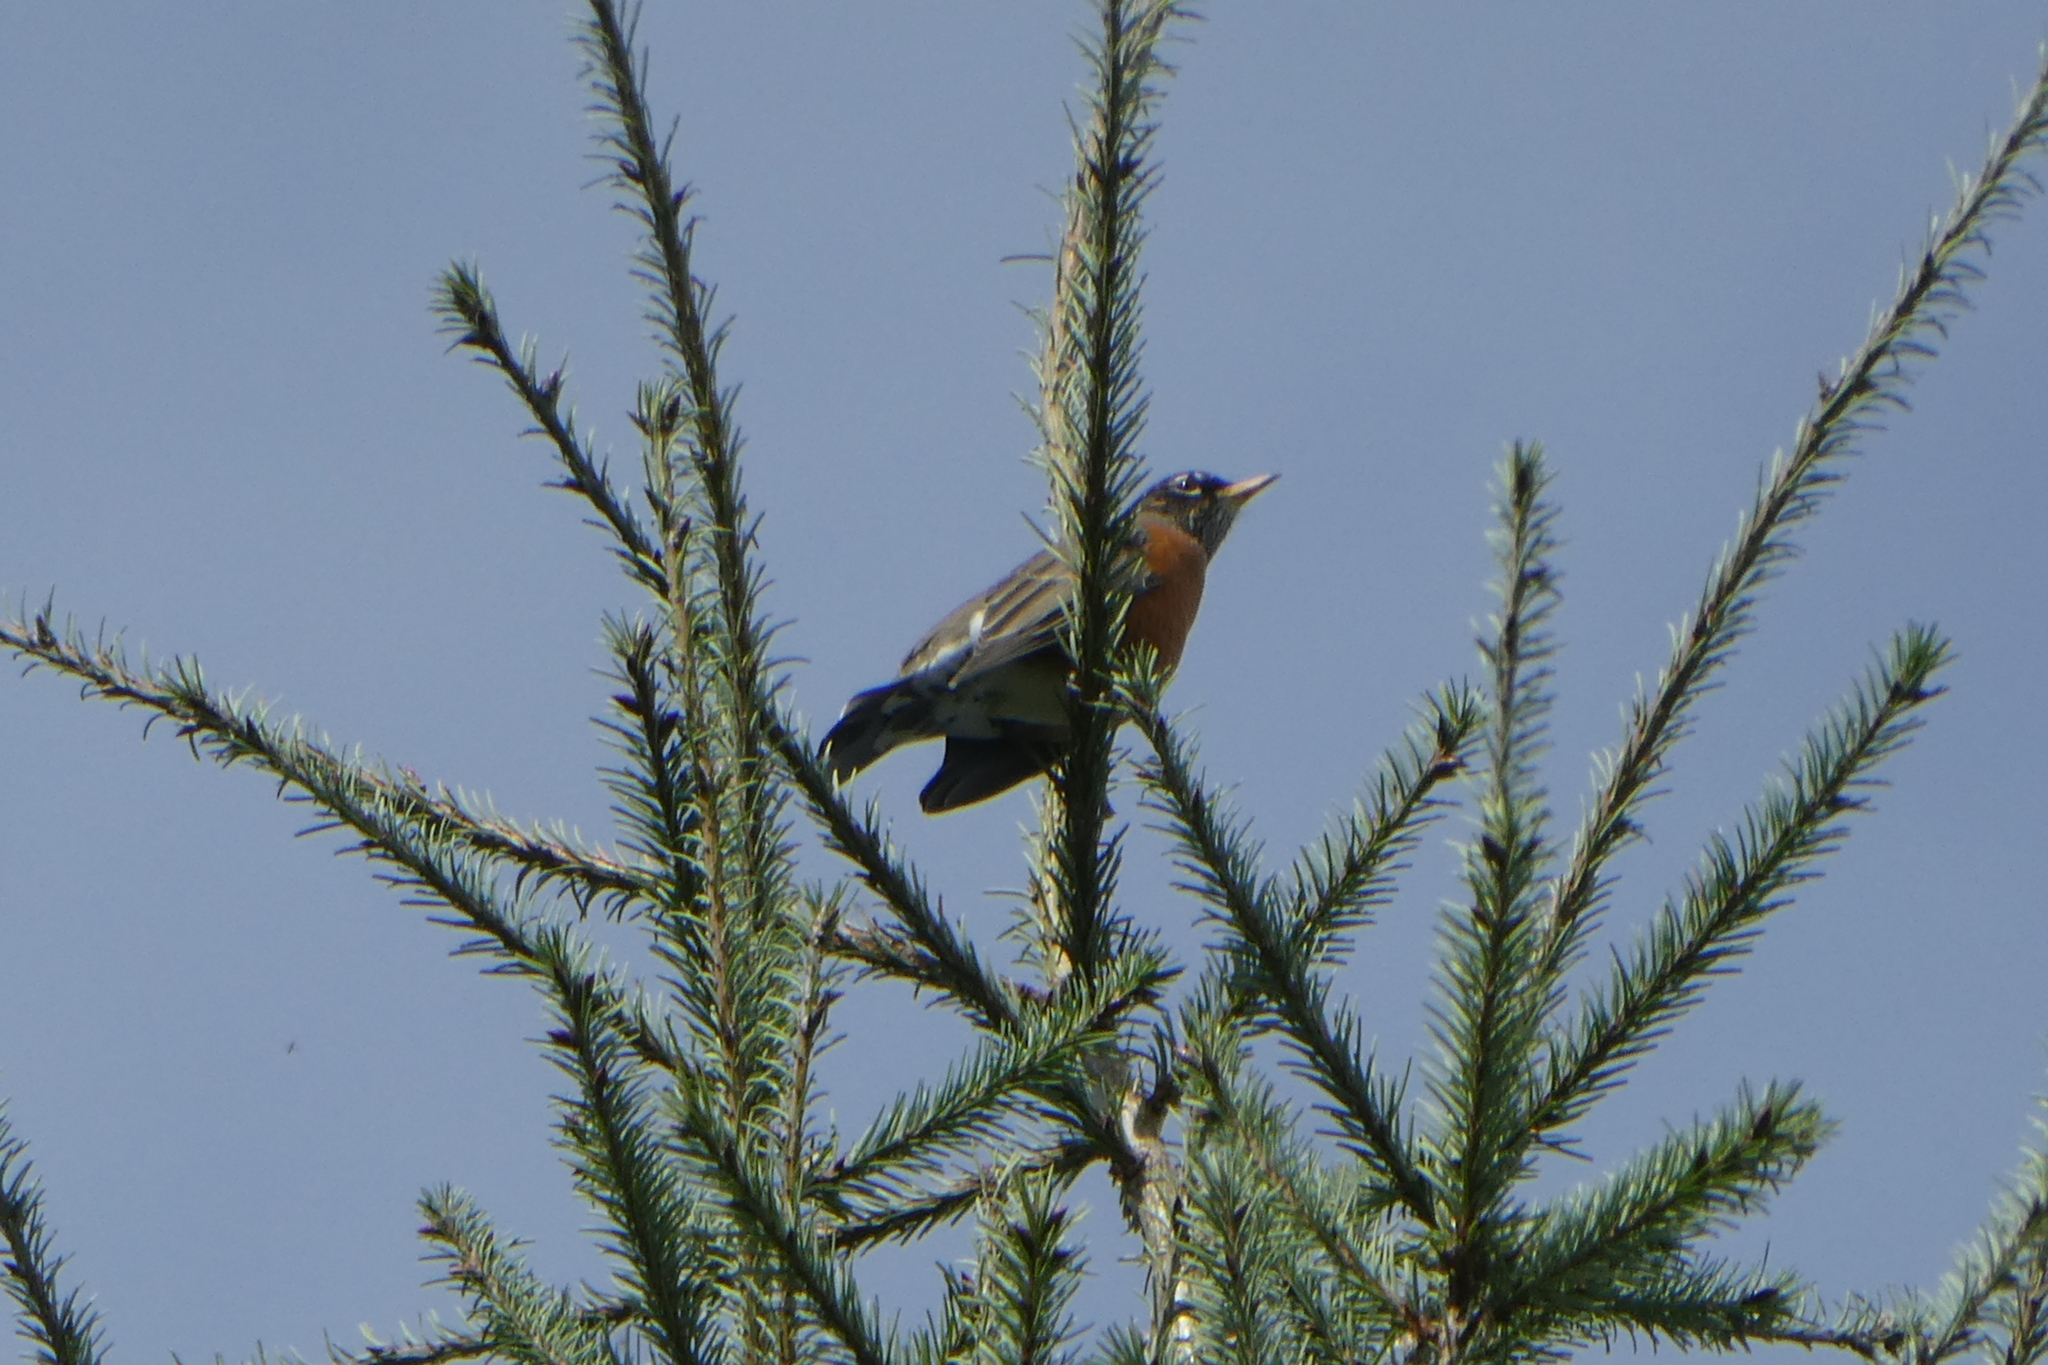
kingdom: Animalia
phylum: Chordata
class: Aves
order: Passeriformes
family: Turdidae
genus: Turdus
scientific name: Turdus migratorius
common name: American robin
